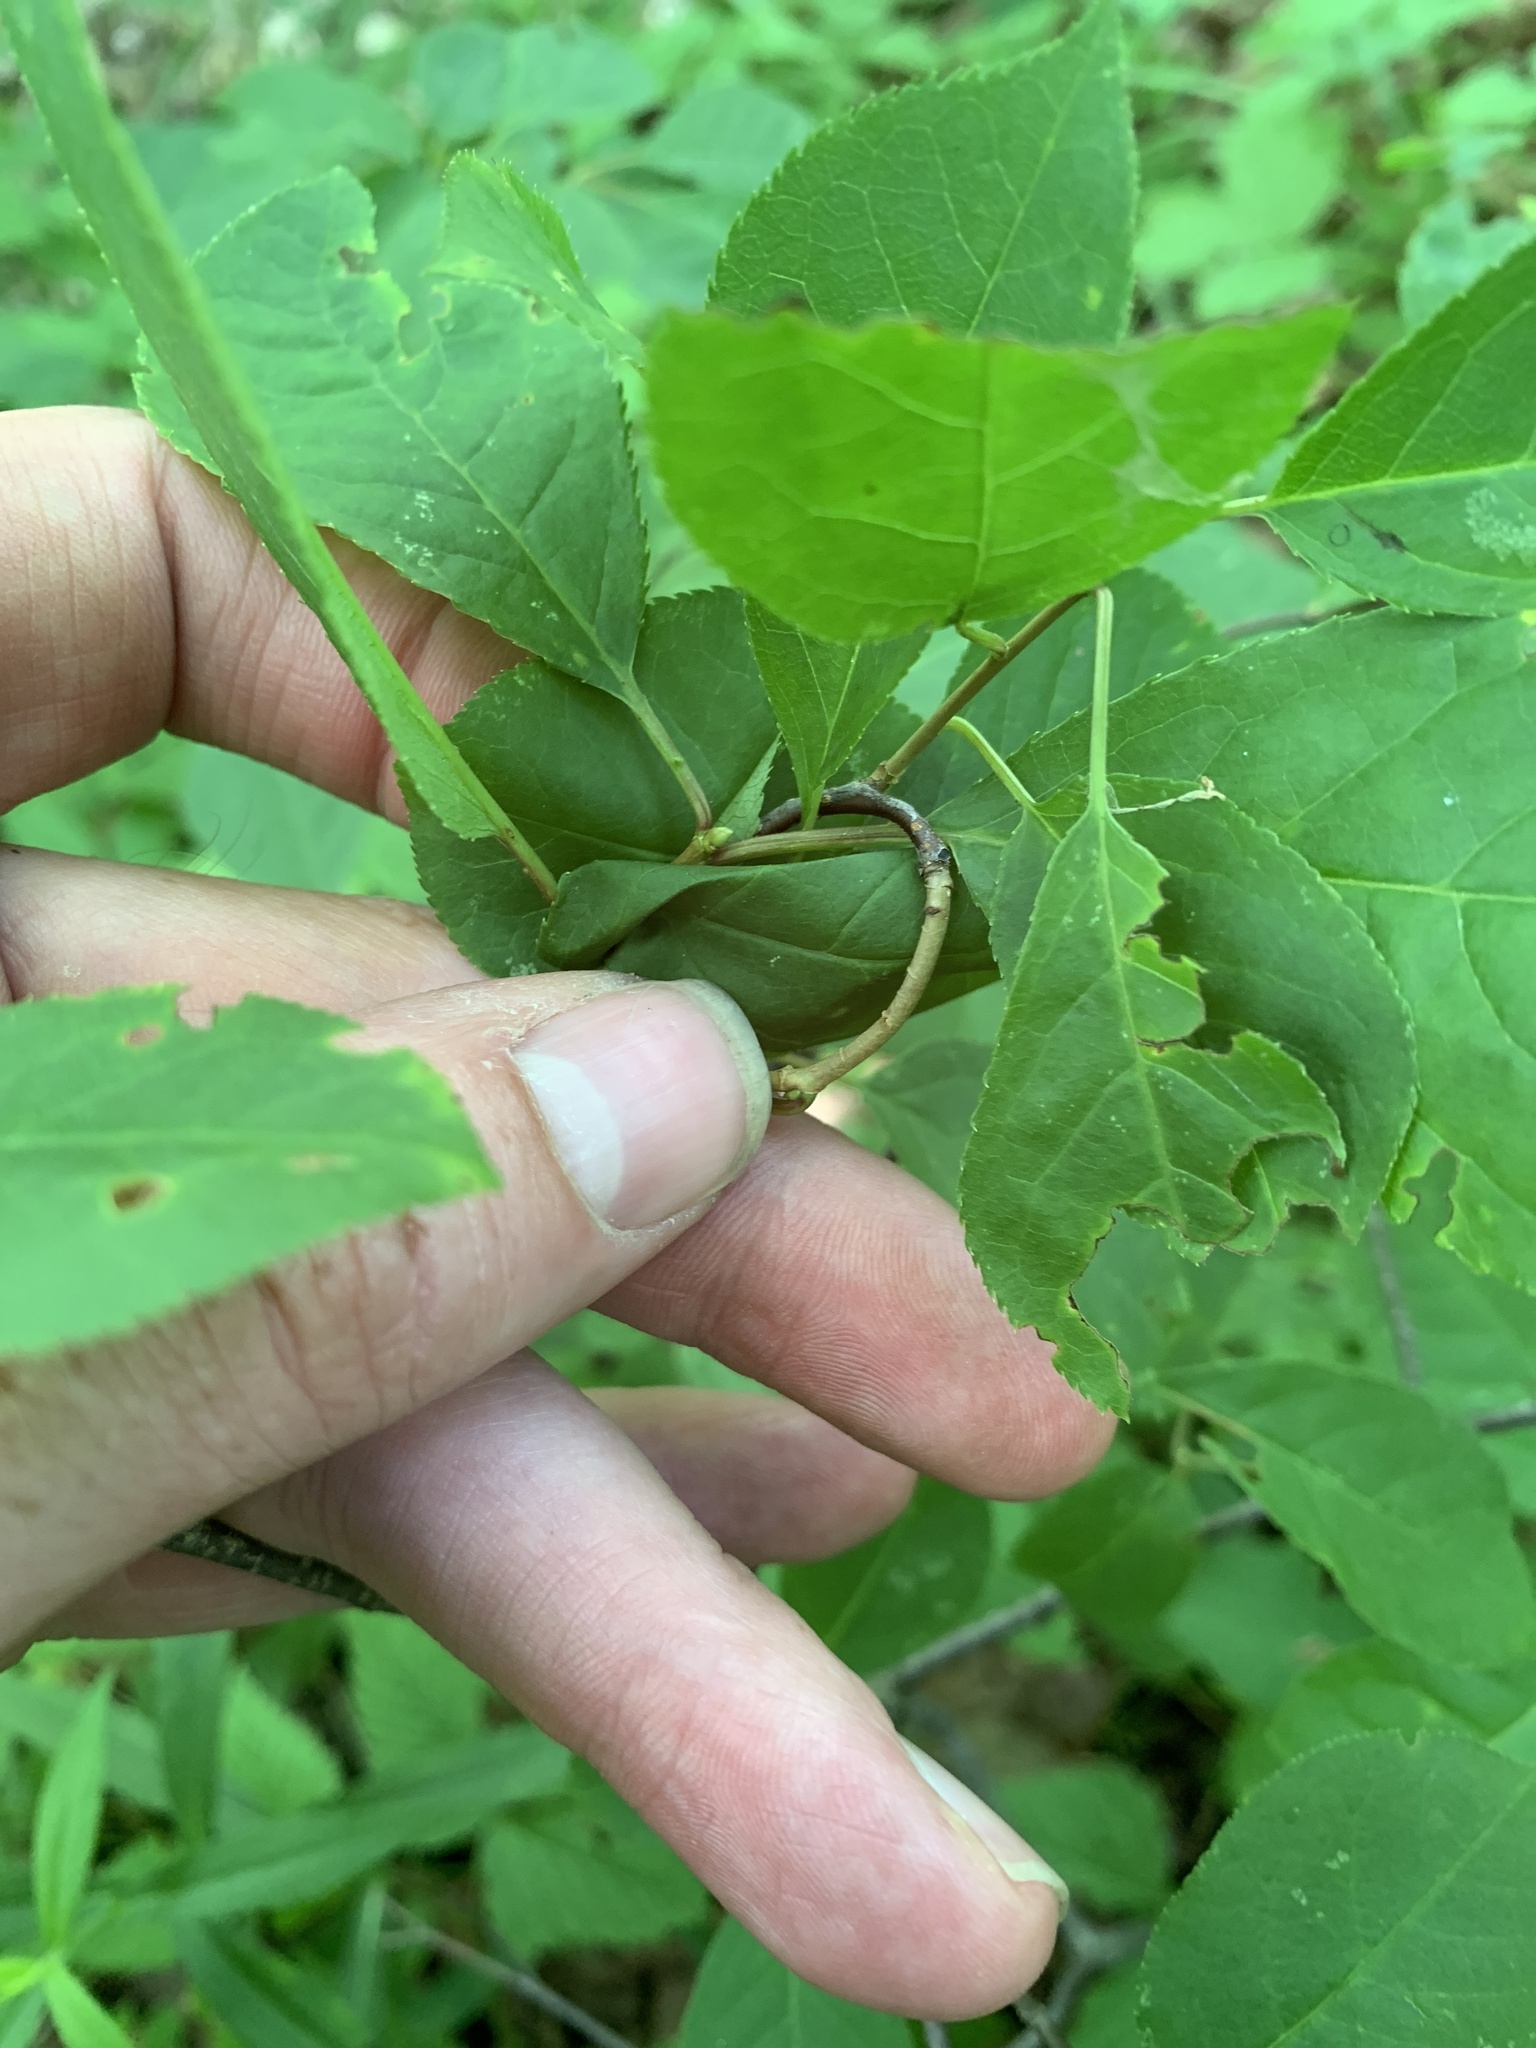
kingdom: Plantae
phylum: Tracheophyta
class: Magnoliopsida
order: Rosales
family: Rosaceae
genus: Prunus
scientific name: Prunus virginiana
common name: Chokecherry
